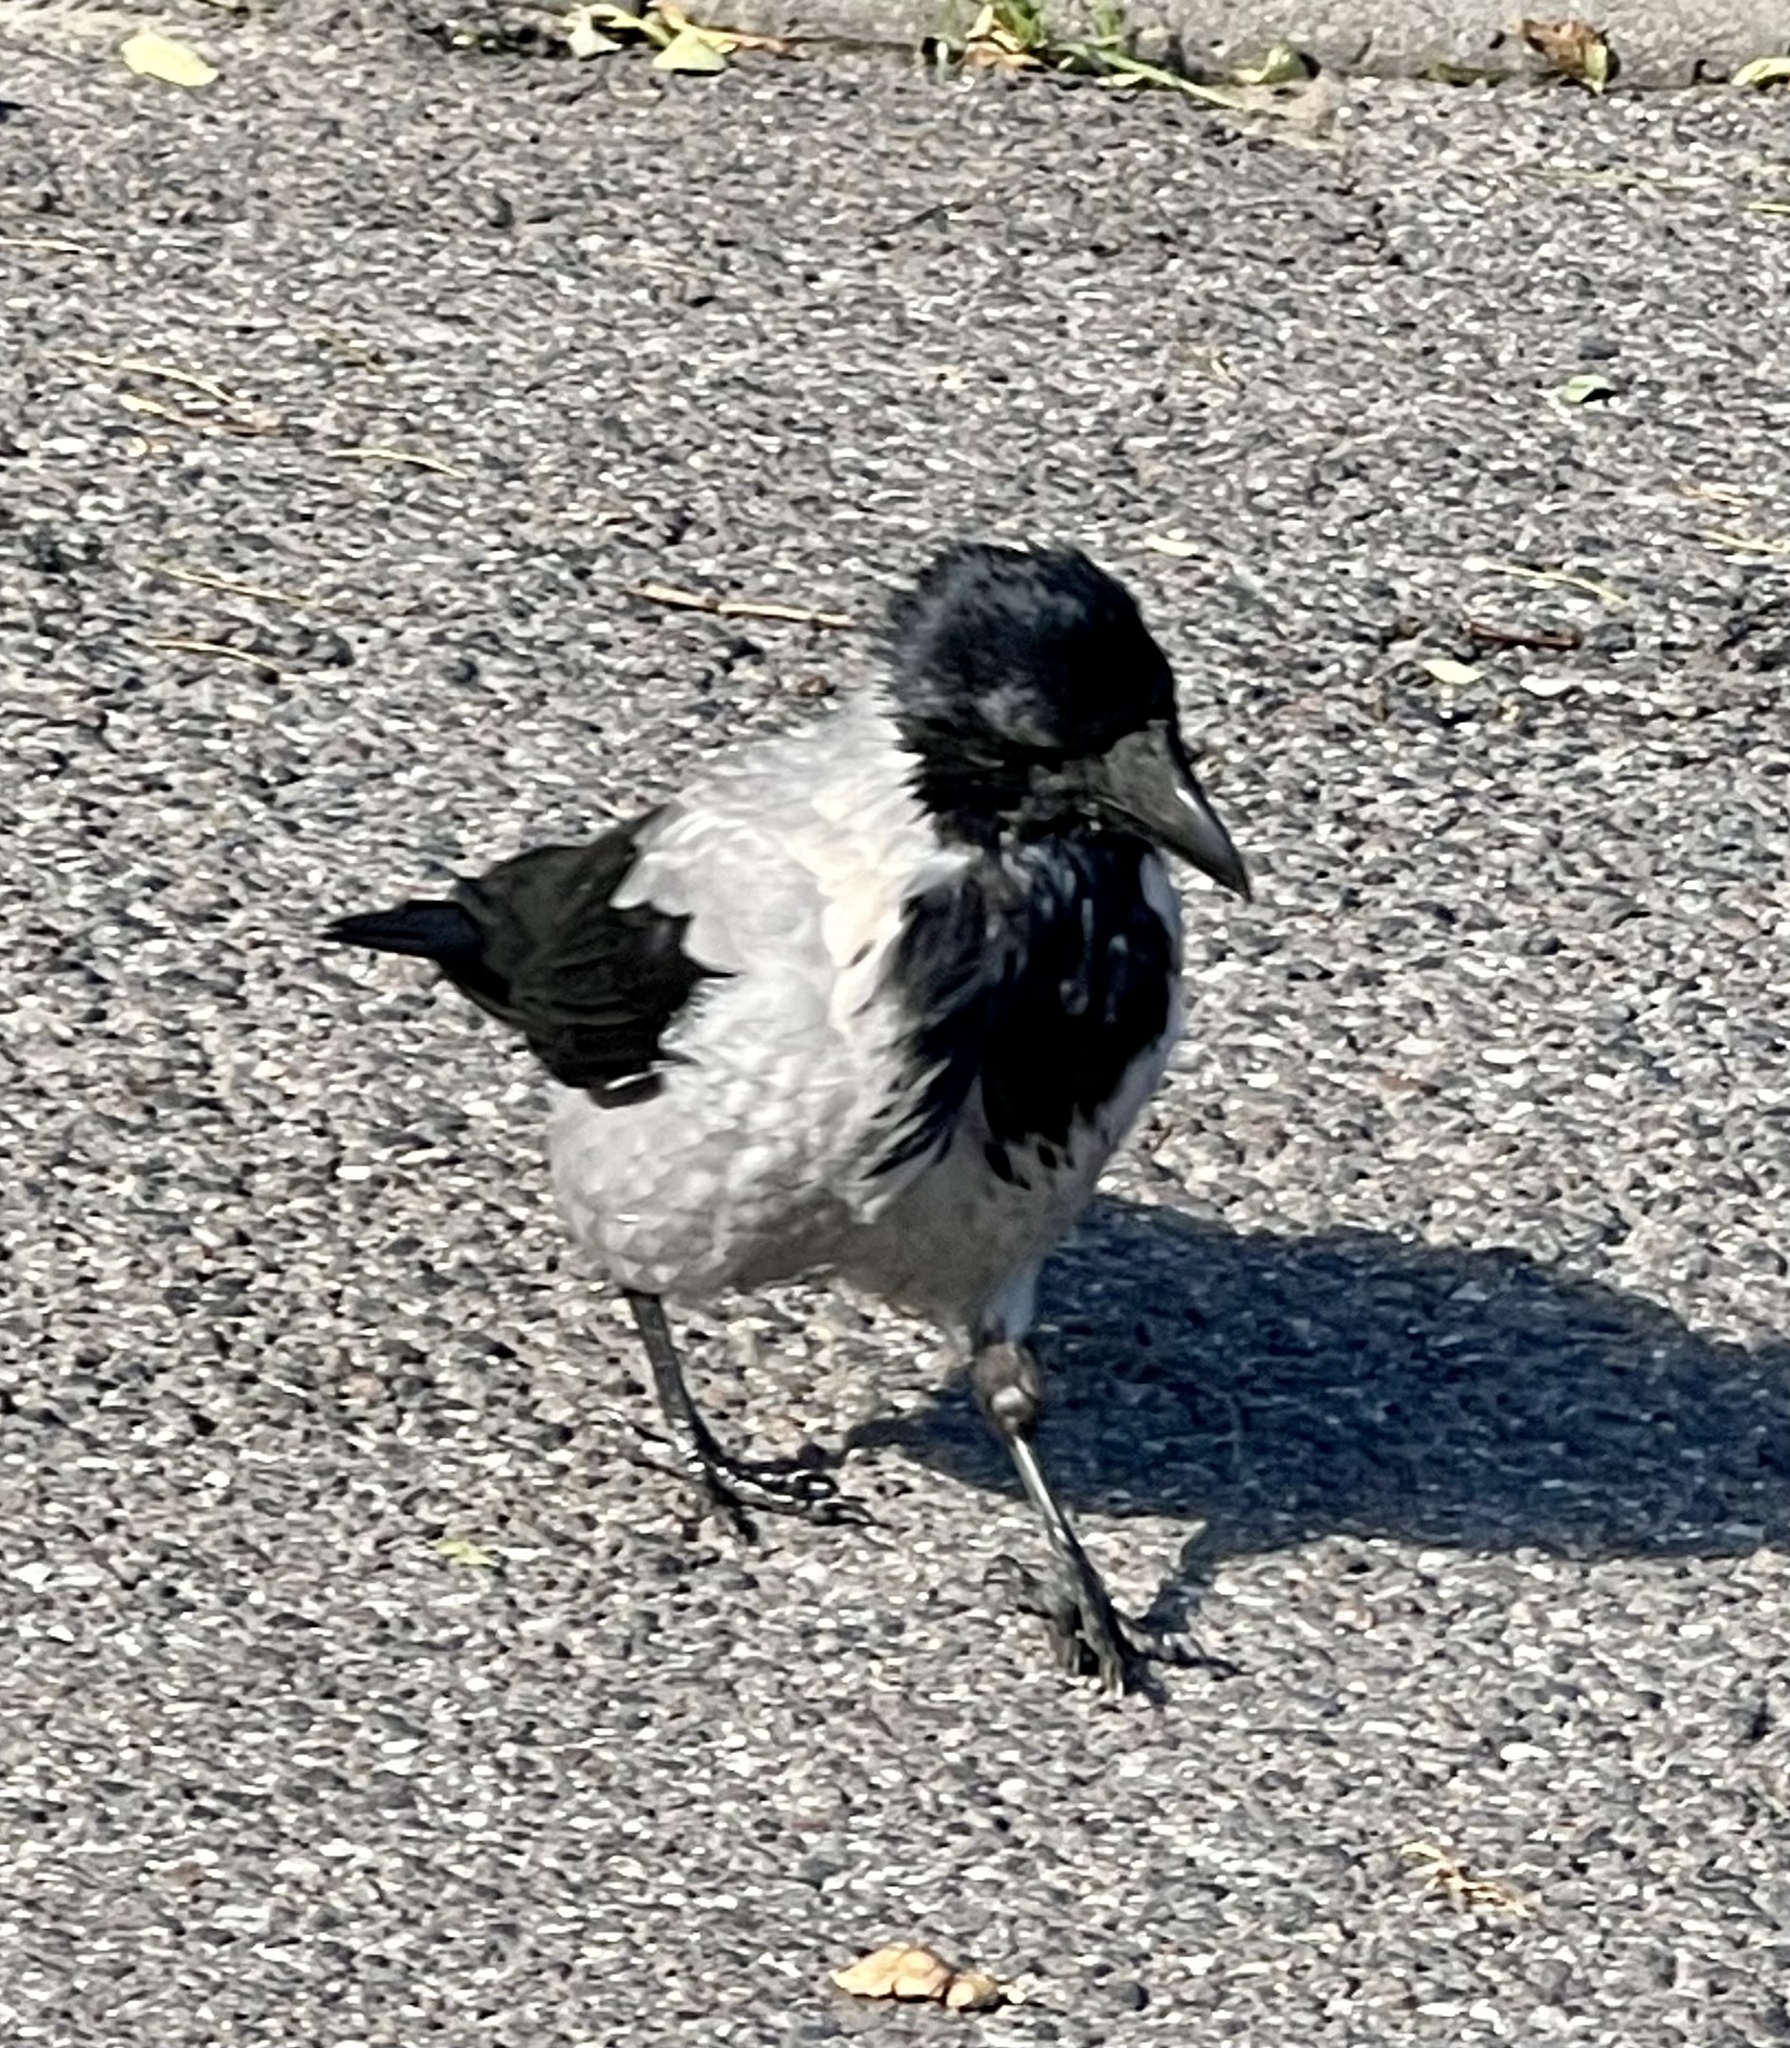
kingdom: Animalia
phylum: Chordata
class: Aves
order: Passeriformes
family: Corvidae
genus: Corvus
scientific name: Corvus cornix
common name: Hooded crow
